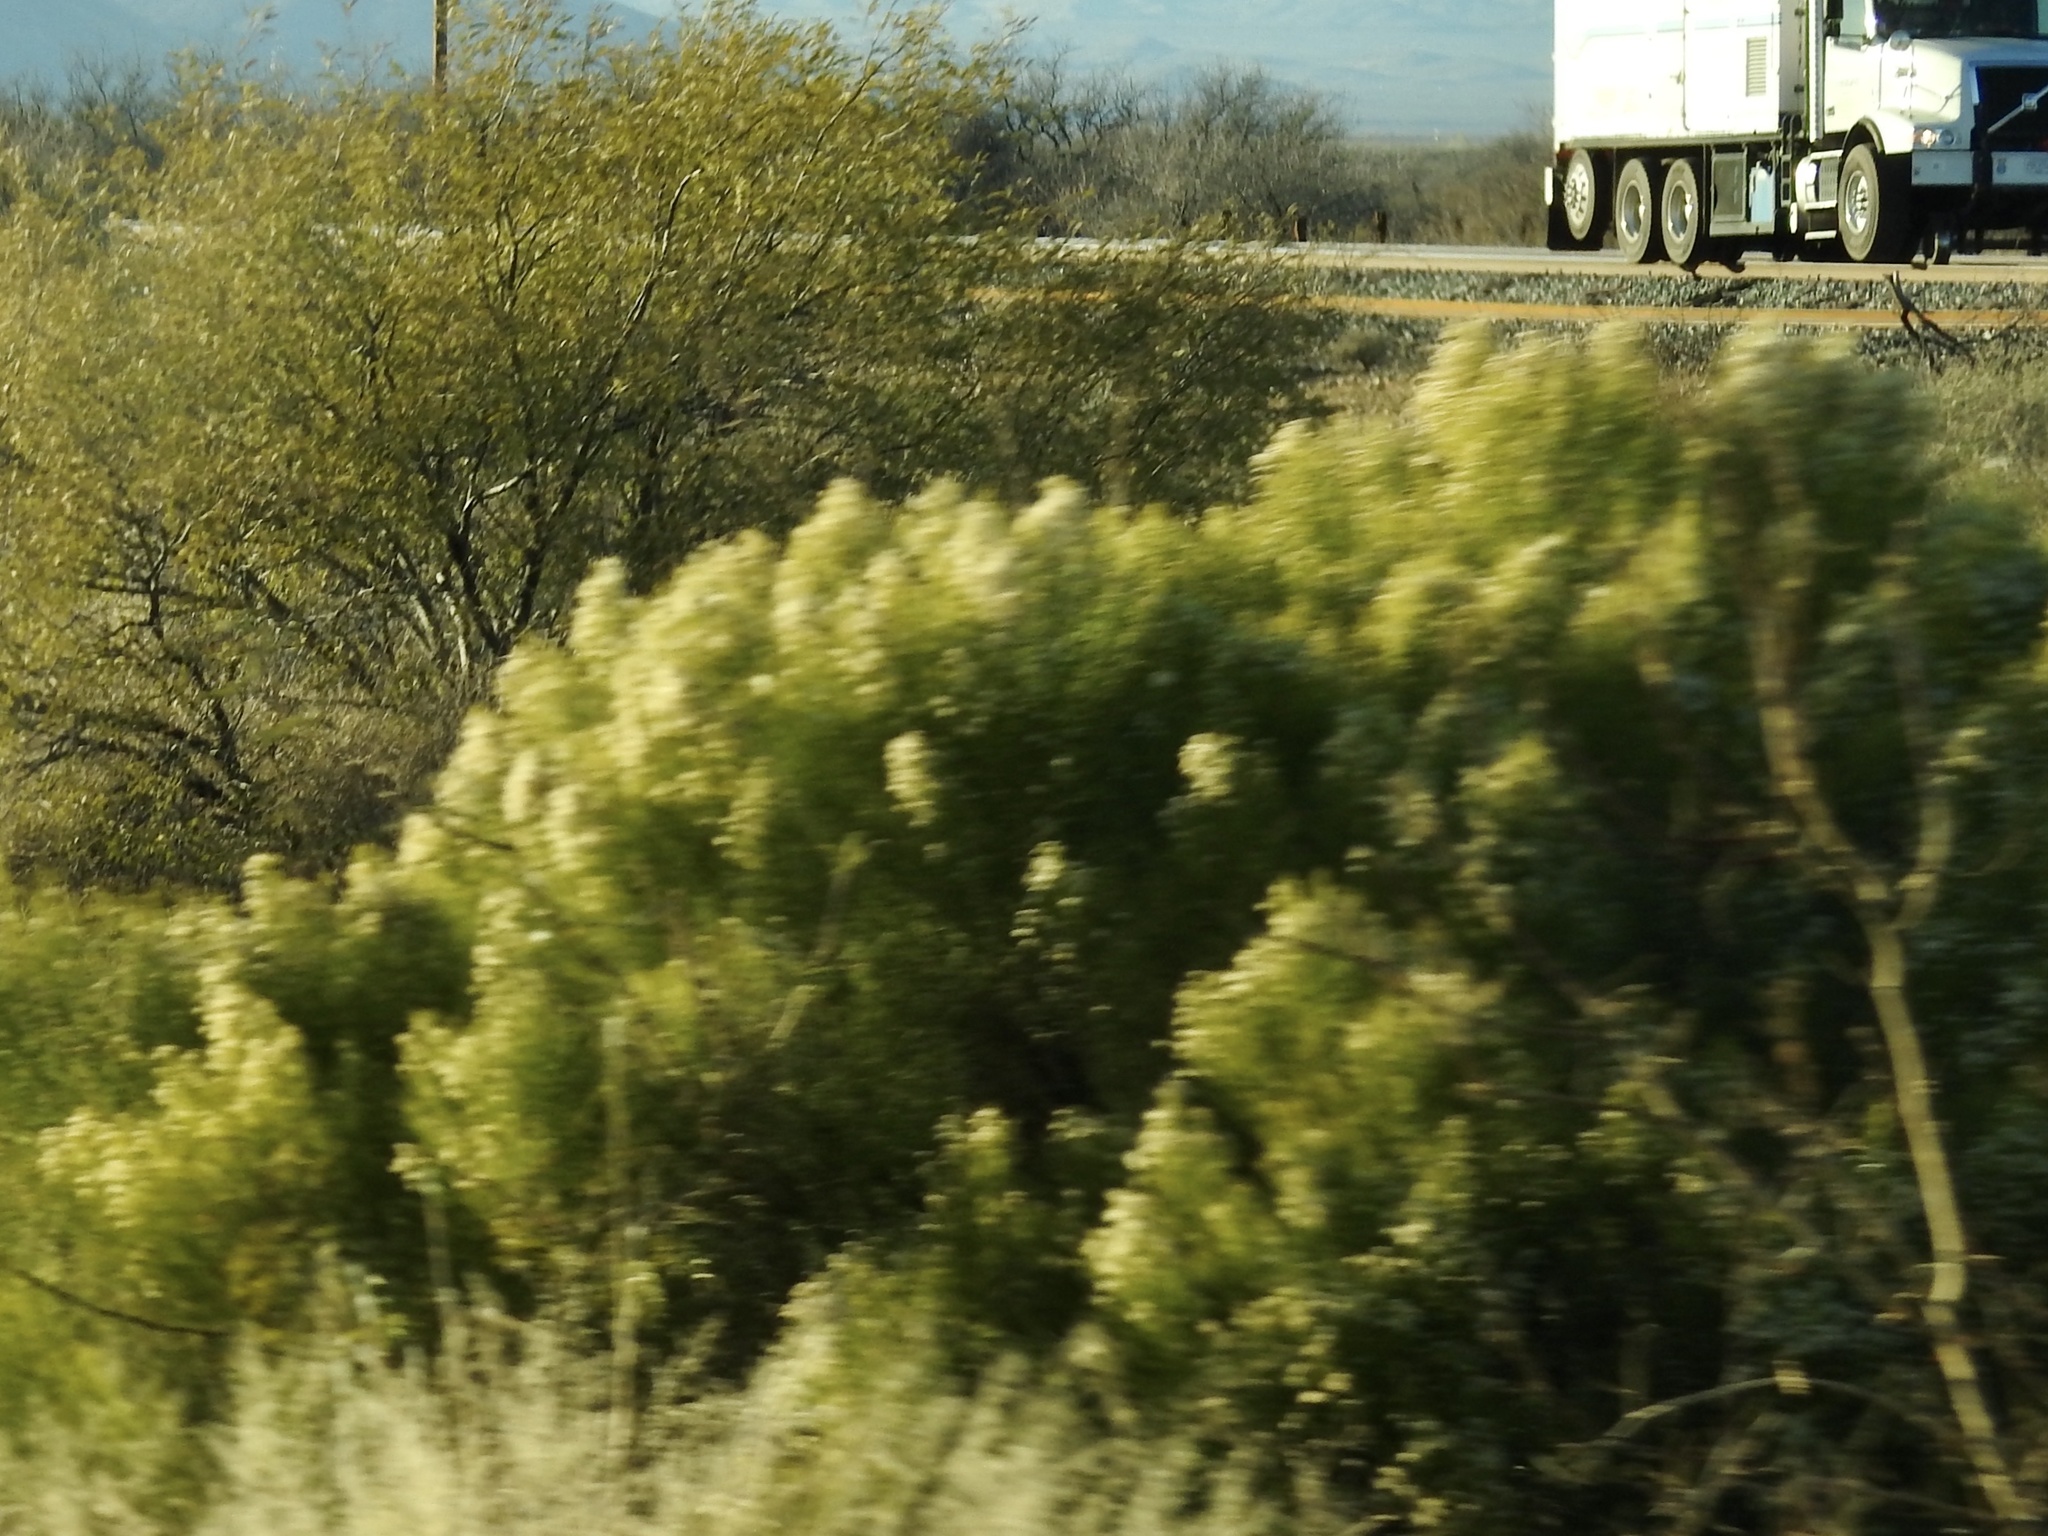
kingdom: Plantae
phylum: Tracheophyta
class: Magnoliopsida
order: Asterales
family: Asteraceae
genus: Baccharis
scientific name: Baccharis sarothroides
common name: Desert-broom
